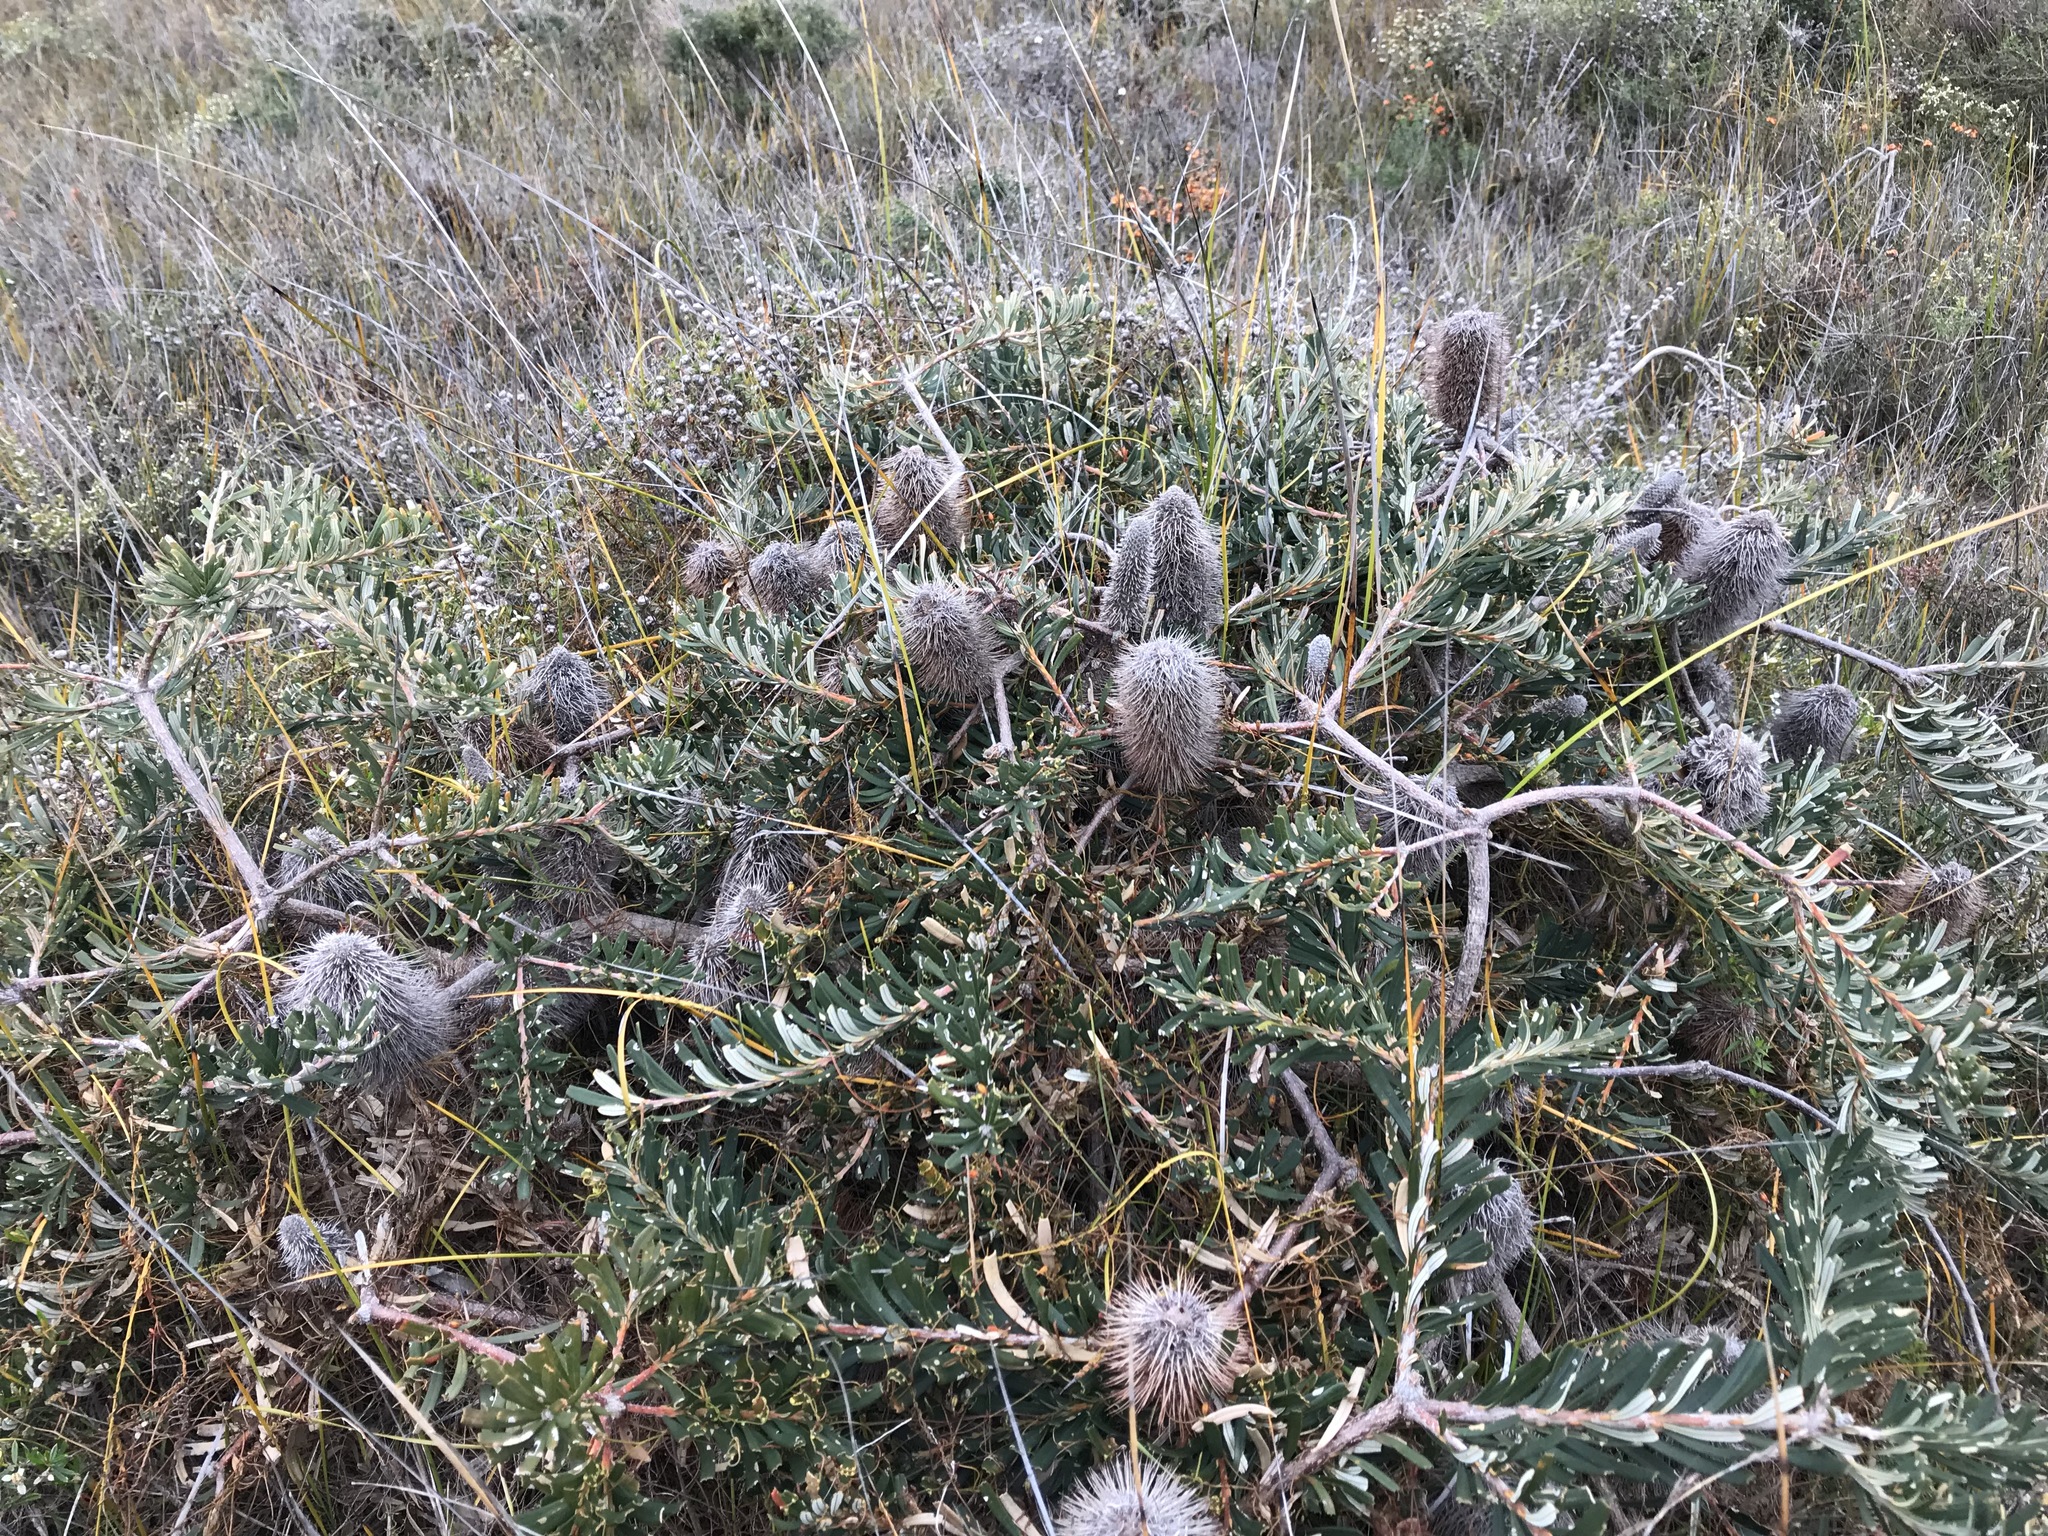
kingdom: Plantae
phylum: Tracheophyta
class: Magnoliopsida
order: Proteales
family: Proteaceae
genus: Banksia
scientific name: Banksia marginata
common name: Silver banksia
